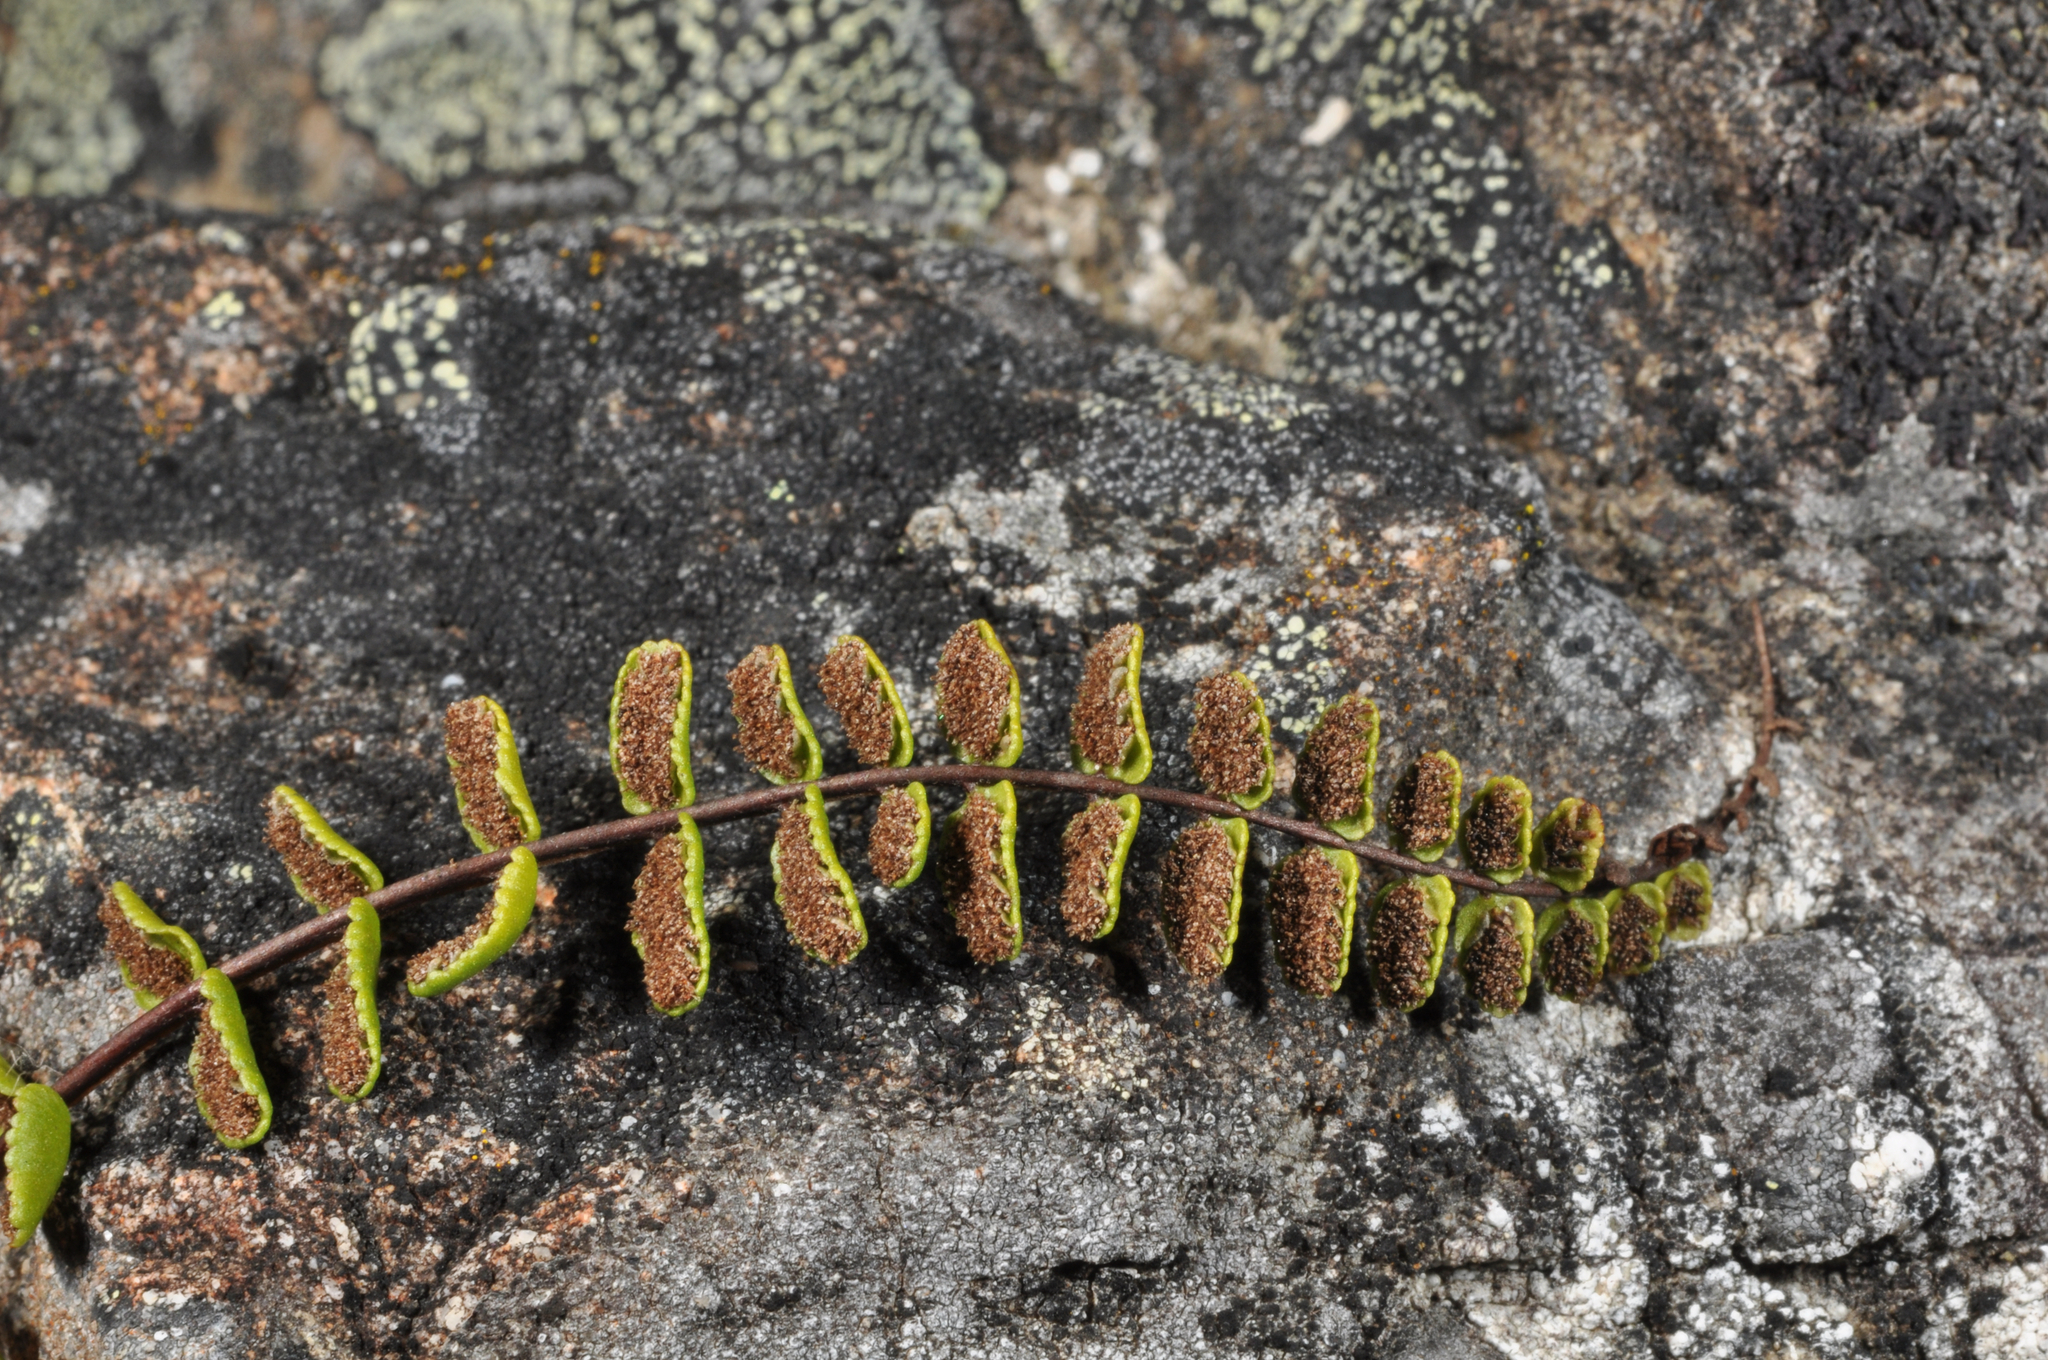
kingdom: Plantae
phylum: Tracheophyta
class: Polypodiopsida
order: Polypodiales
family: Aspleniaceae
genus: Asplenium
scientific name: Asplenium trichomanes
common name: Maidenhair spleenwort
